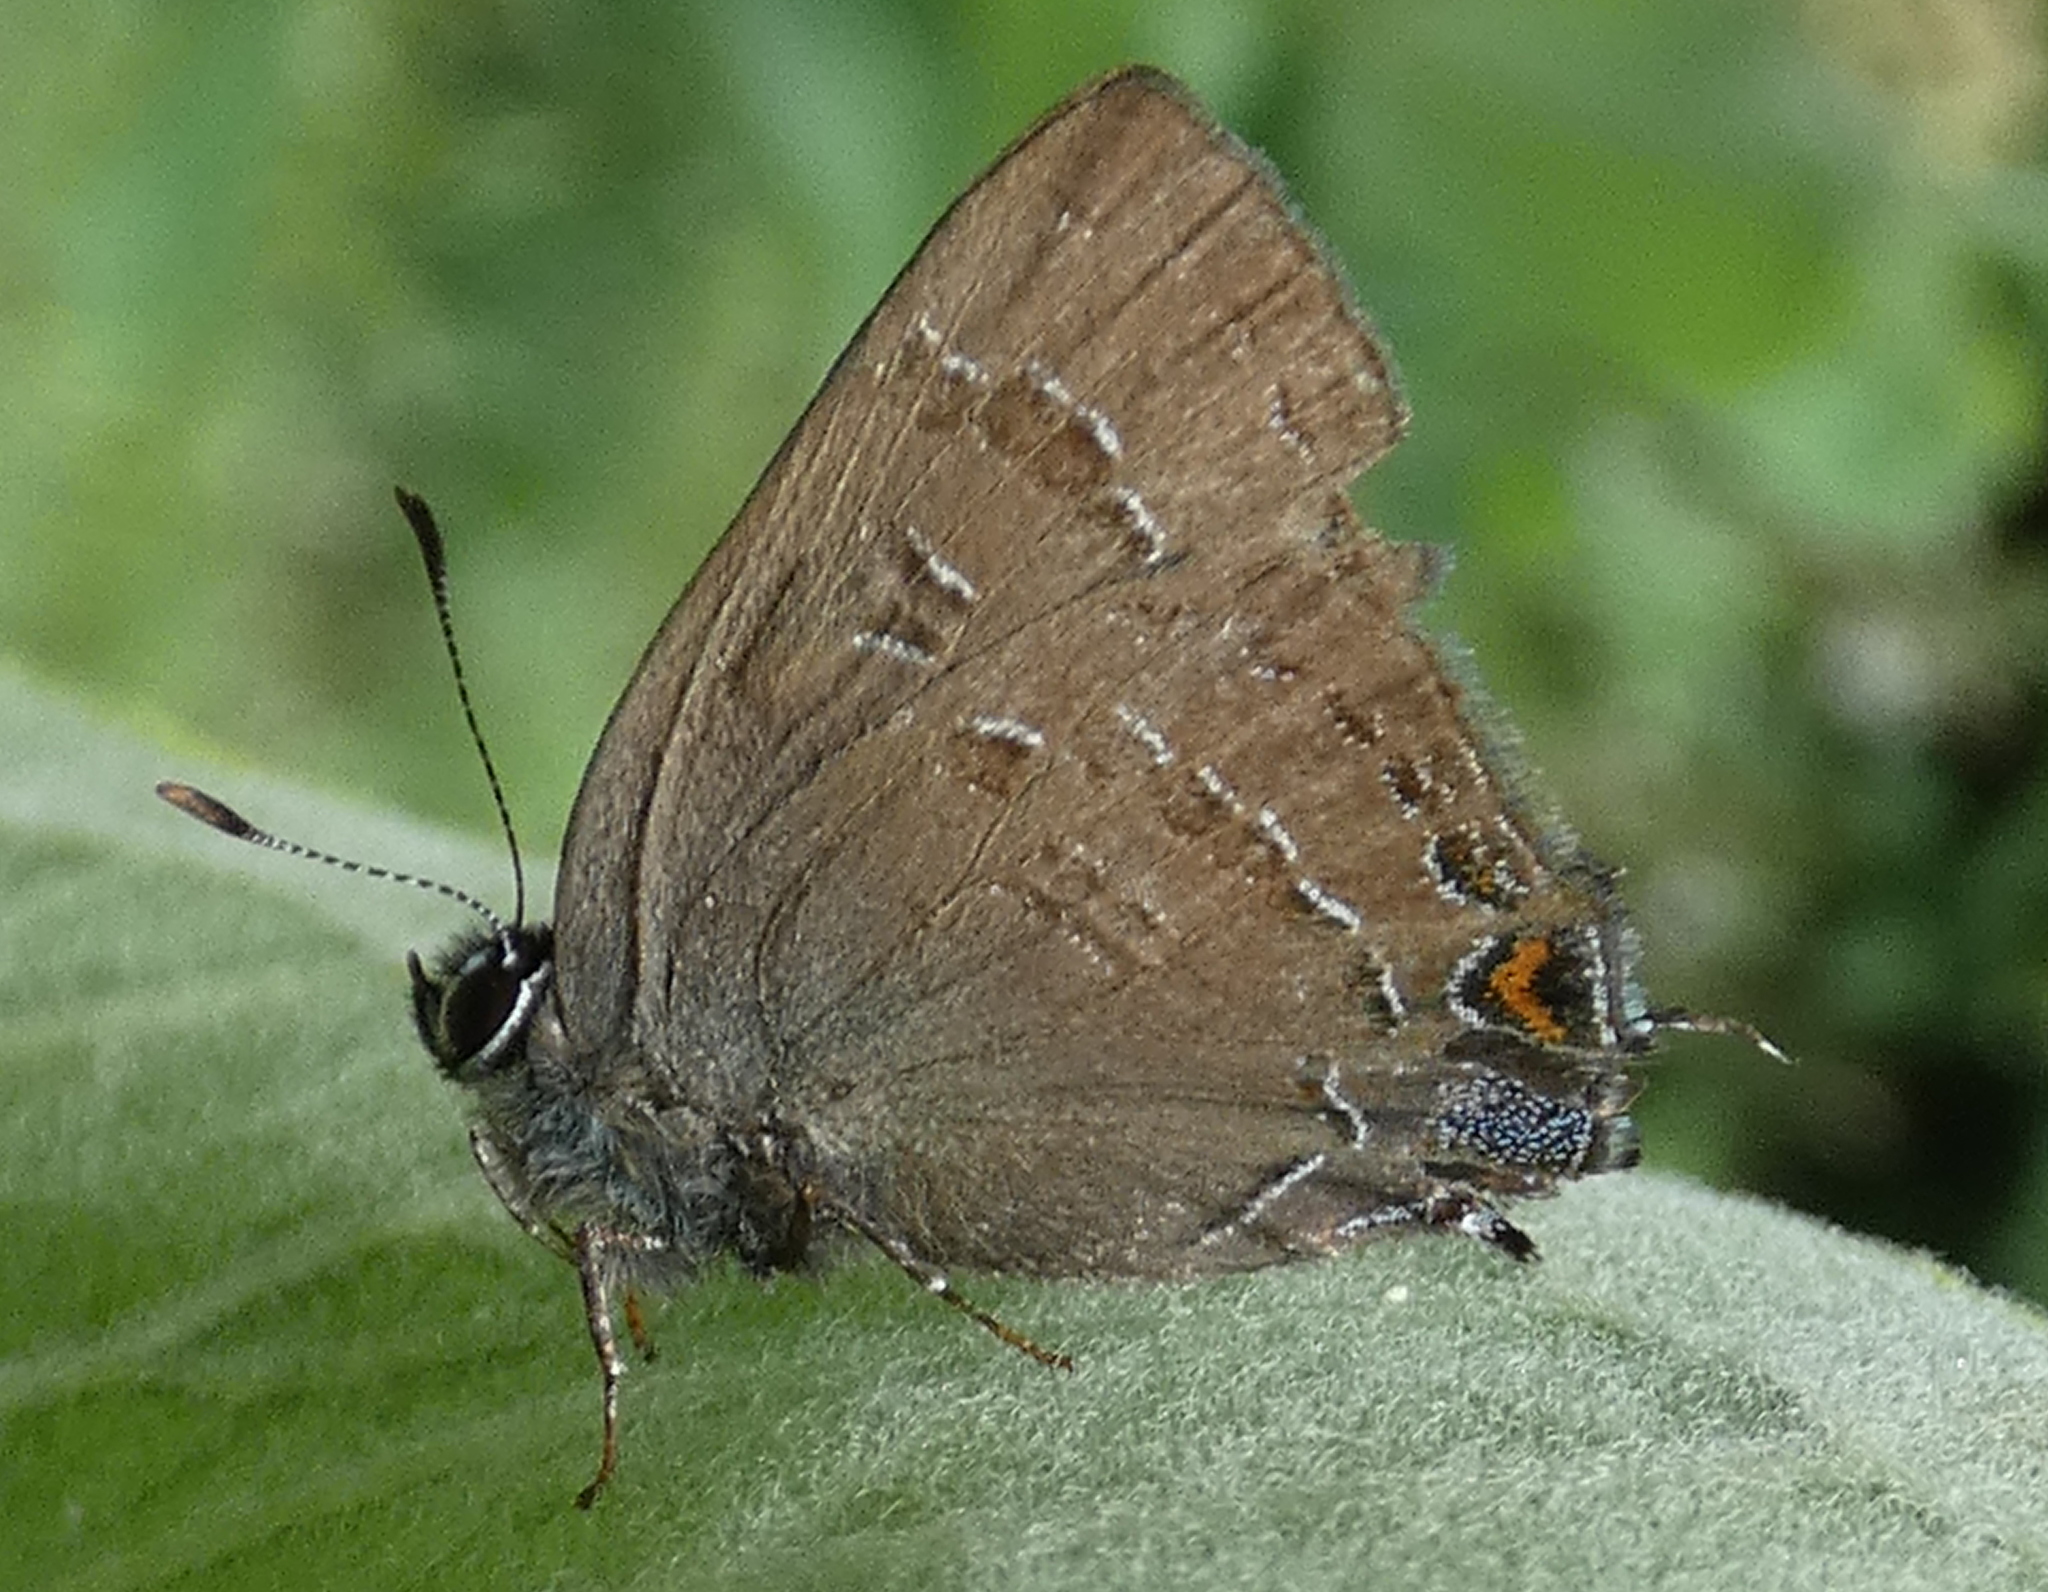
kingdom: Animalia
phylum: Arthropoda
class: Insecta
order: Lepidoptera
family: Lycaenidae
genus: Satyrium
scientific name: Satyrium calanus
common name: Banded hairstreak
